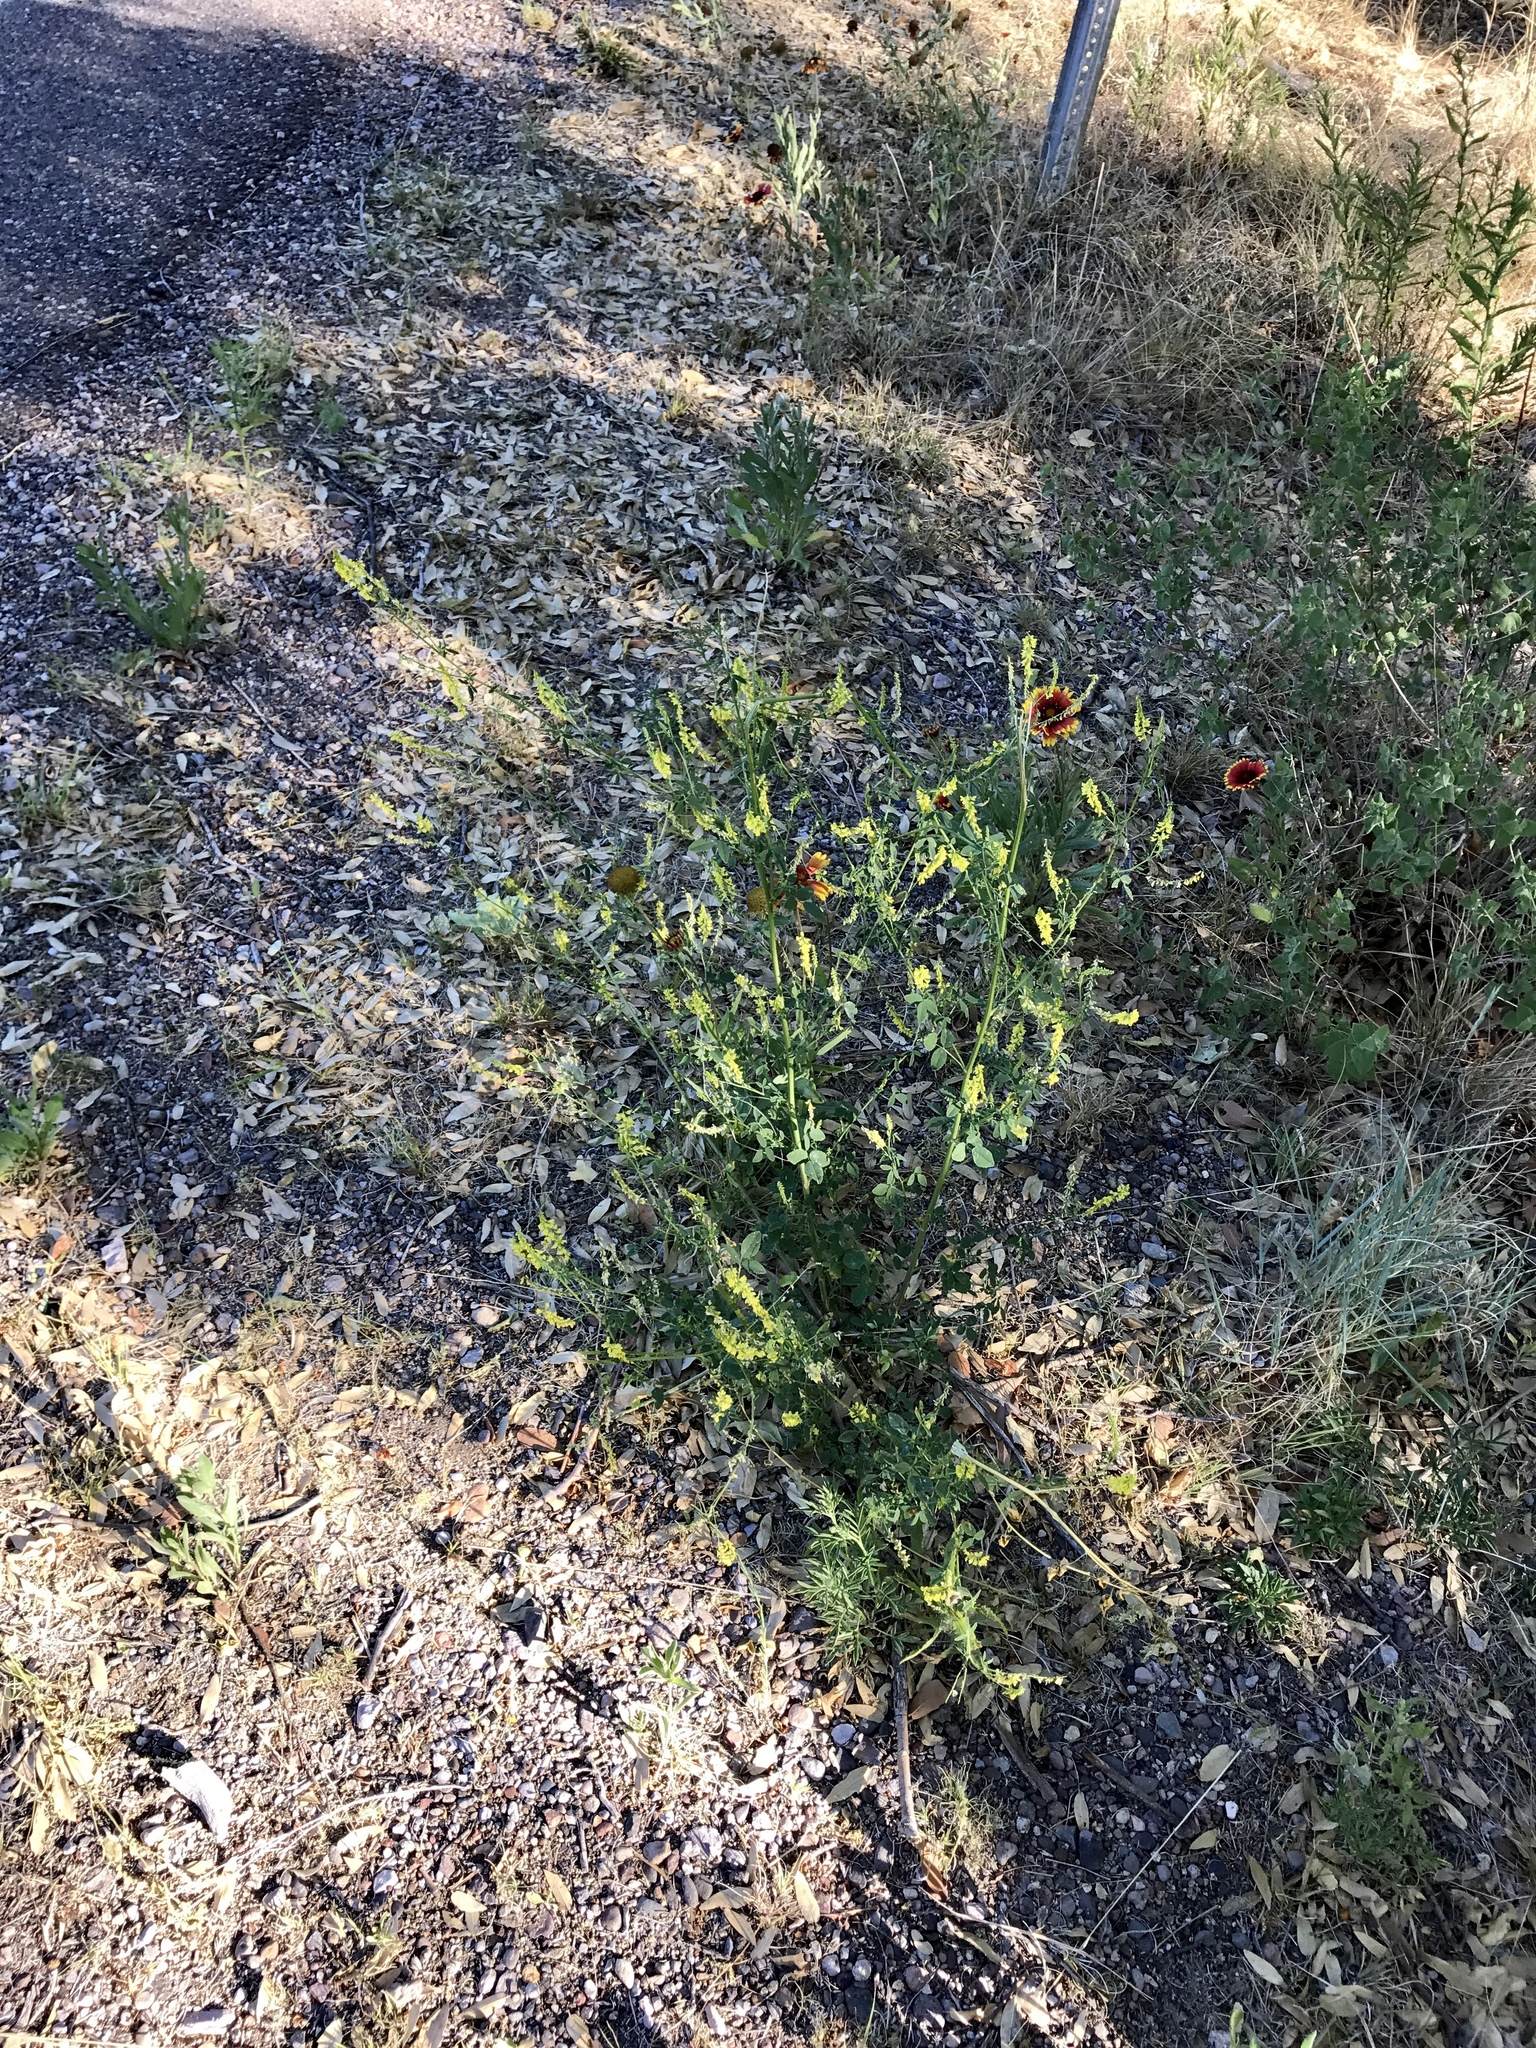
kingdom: Plantae
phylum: Tracheophyta
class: Magnoliopsida
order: Fabales
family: Fabaceae
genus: Melilotus
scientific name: Melilotus officinalis
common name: Sweetclover
